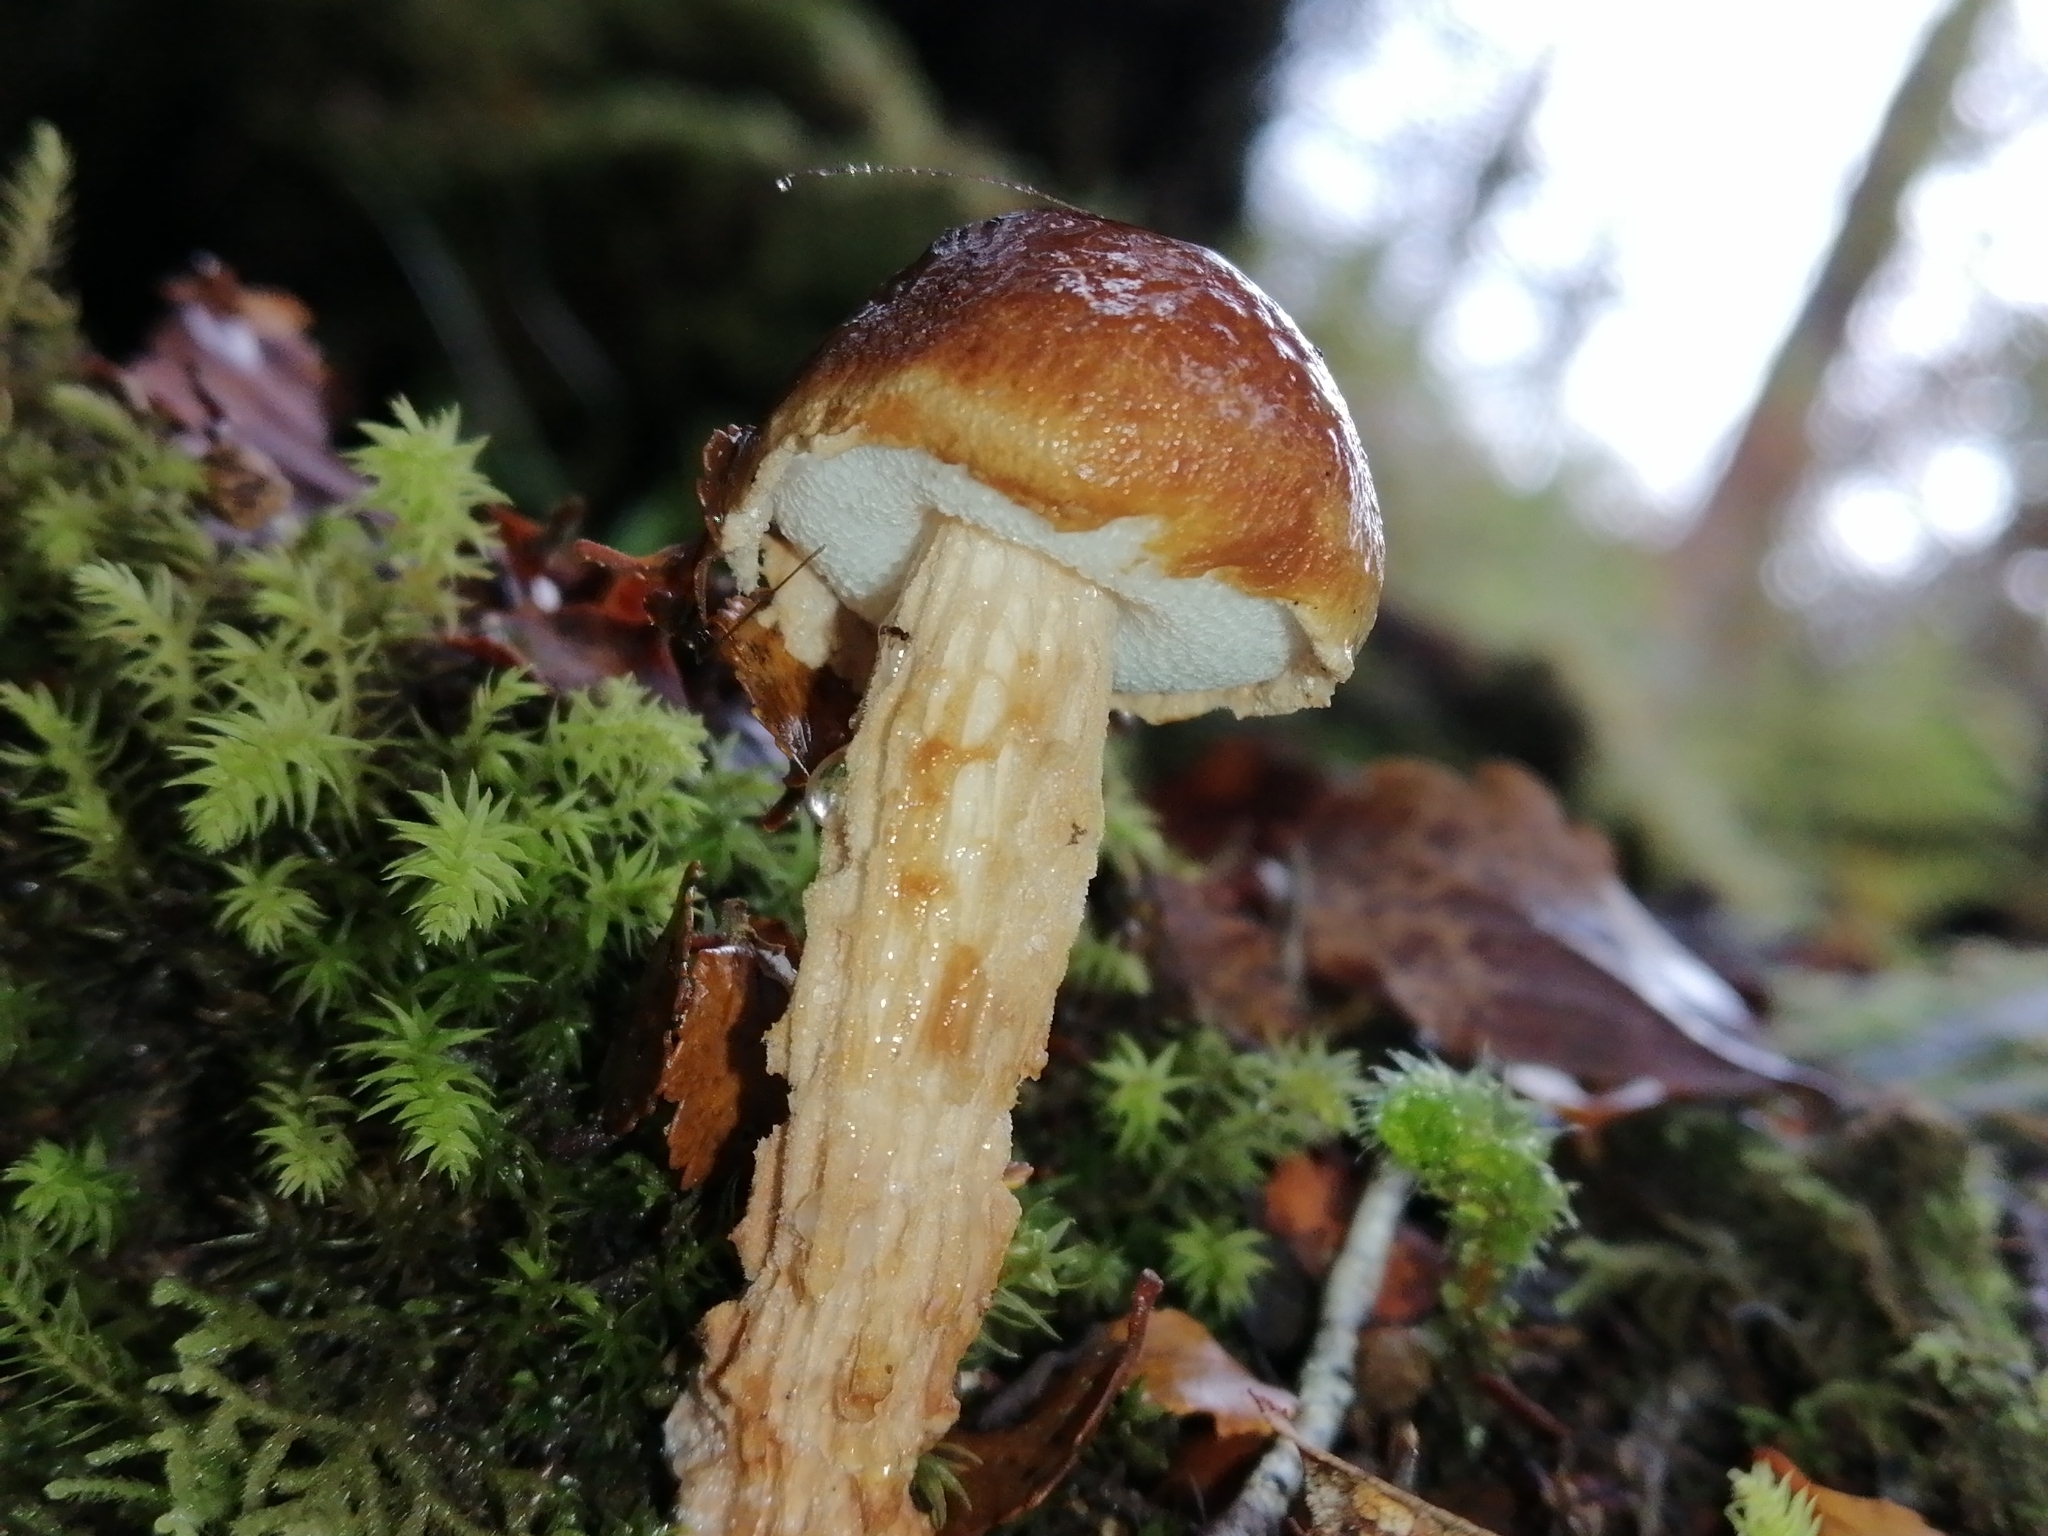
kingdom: Fungi
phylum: Basidiomycota
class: Agaricomycetes
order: Boletales
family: Boletaceae
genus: Austroboletus
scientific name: Austroboletus lacunosus
